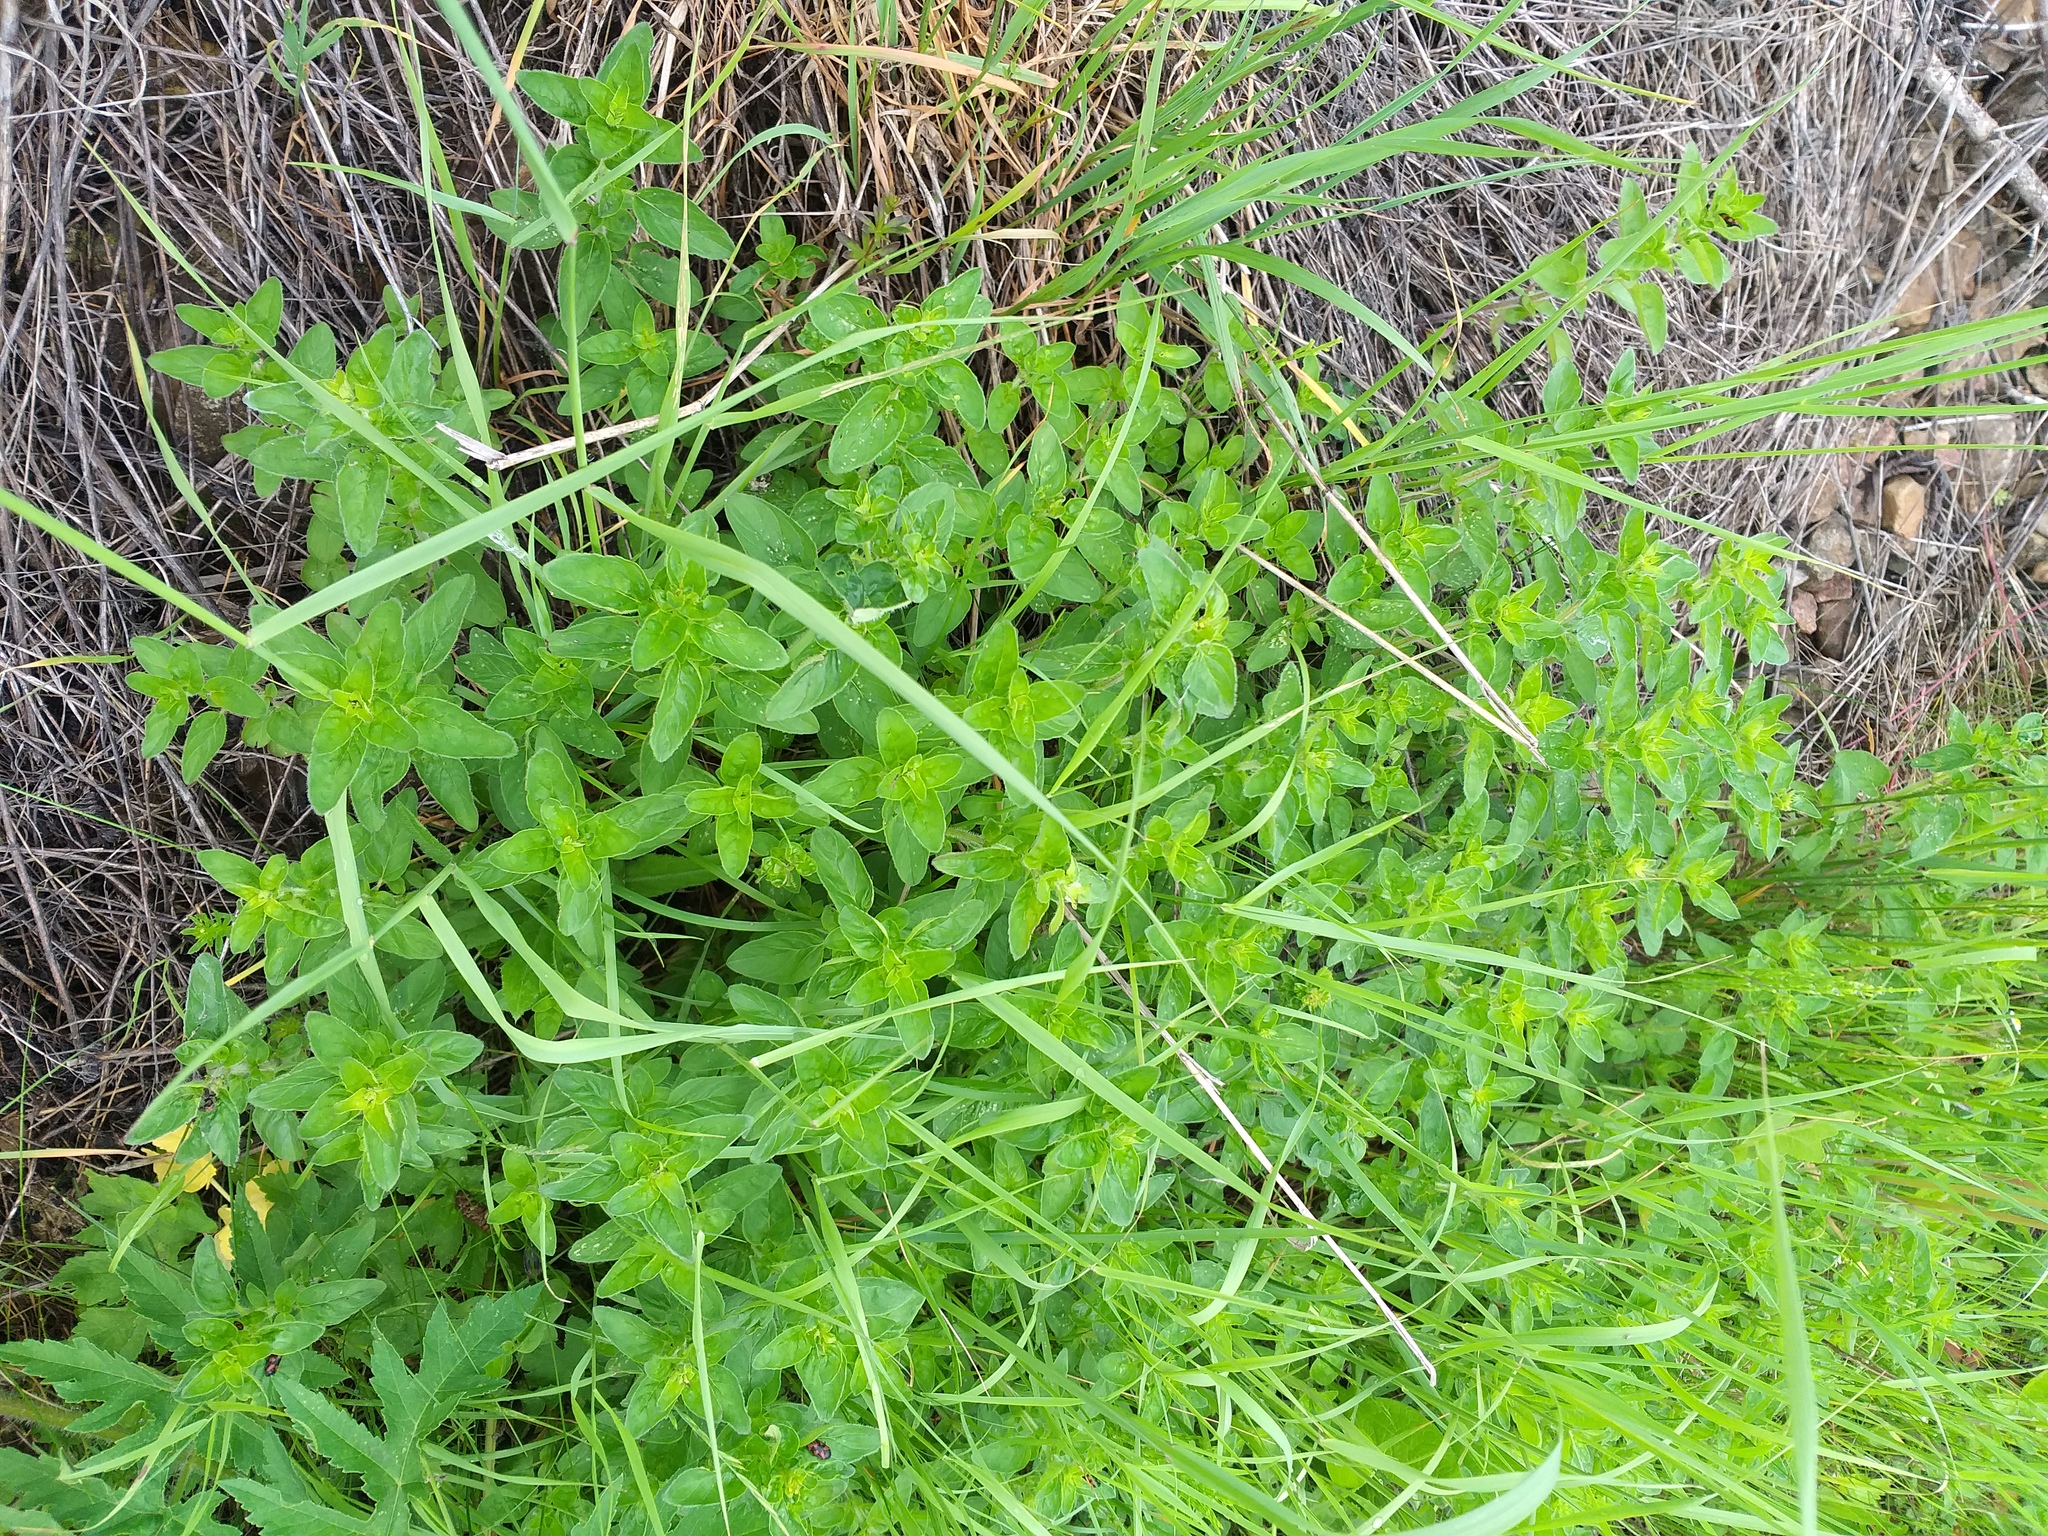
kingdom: Plantae
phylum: Tracheophyta
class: Magnoliopsida
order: Lamiales
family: Lamiaceae
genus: Origanum
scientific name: Origanum vulgare
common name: Wild marjoram
